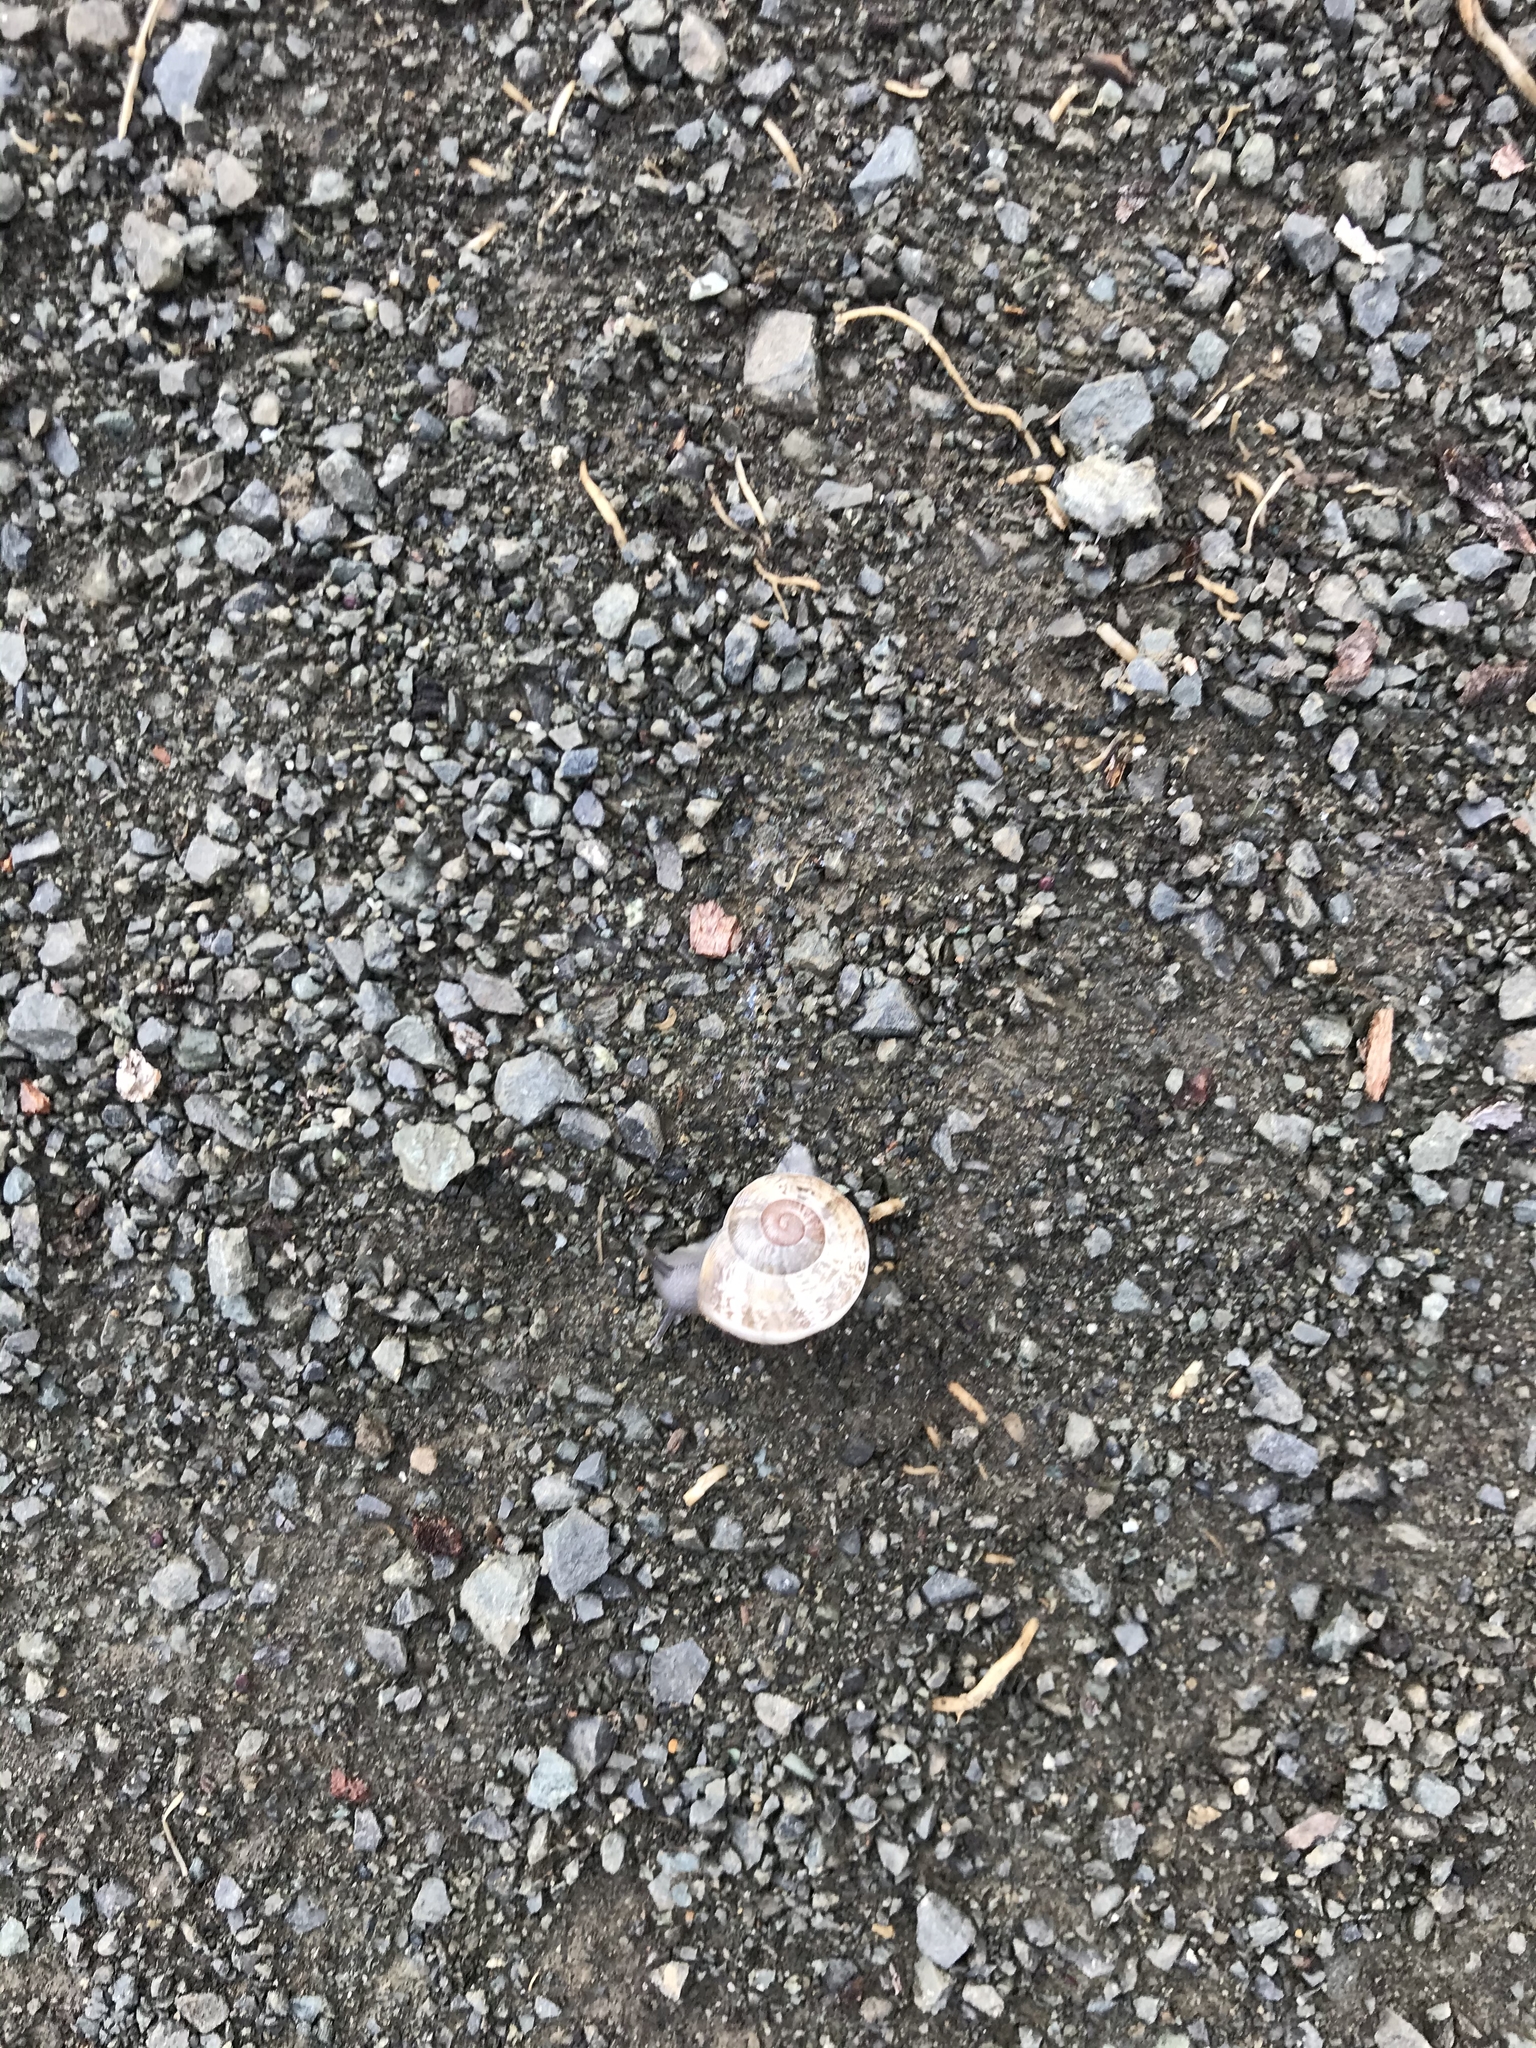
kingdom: Animalia
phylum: Mollusca
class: Gastropoda
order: Stylommatophora
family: Helicidae
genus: Otala
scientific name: Otala lactea
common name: Milk snail
